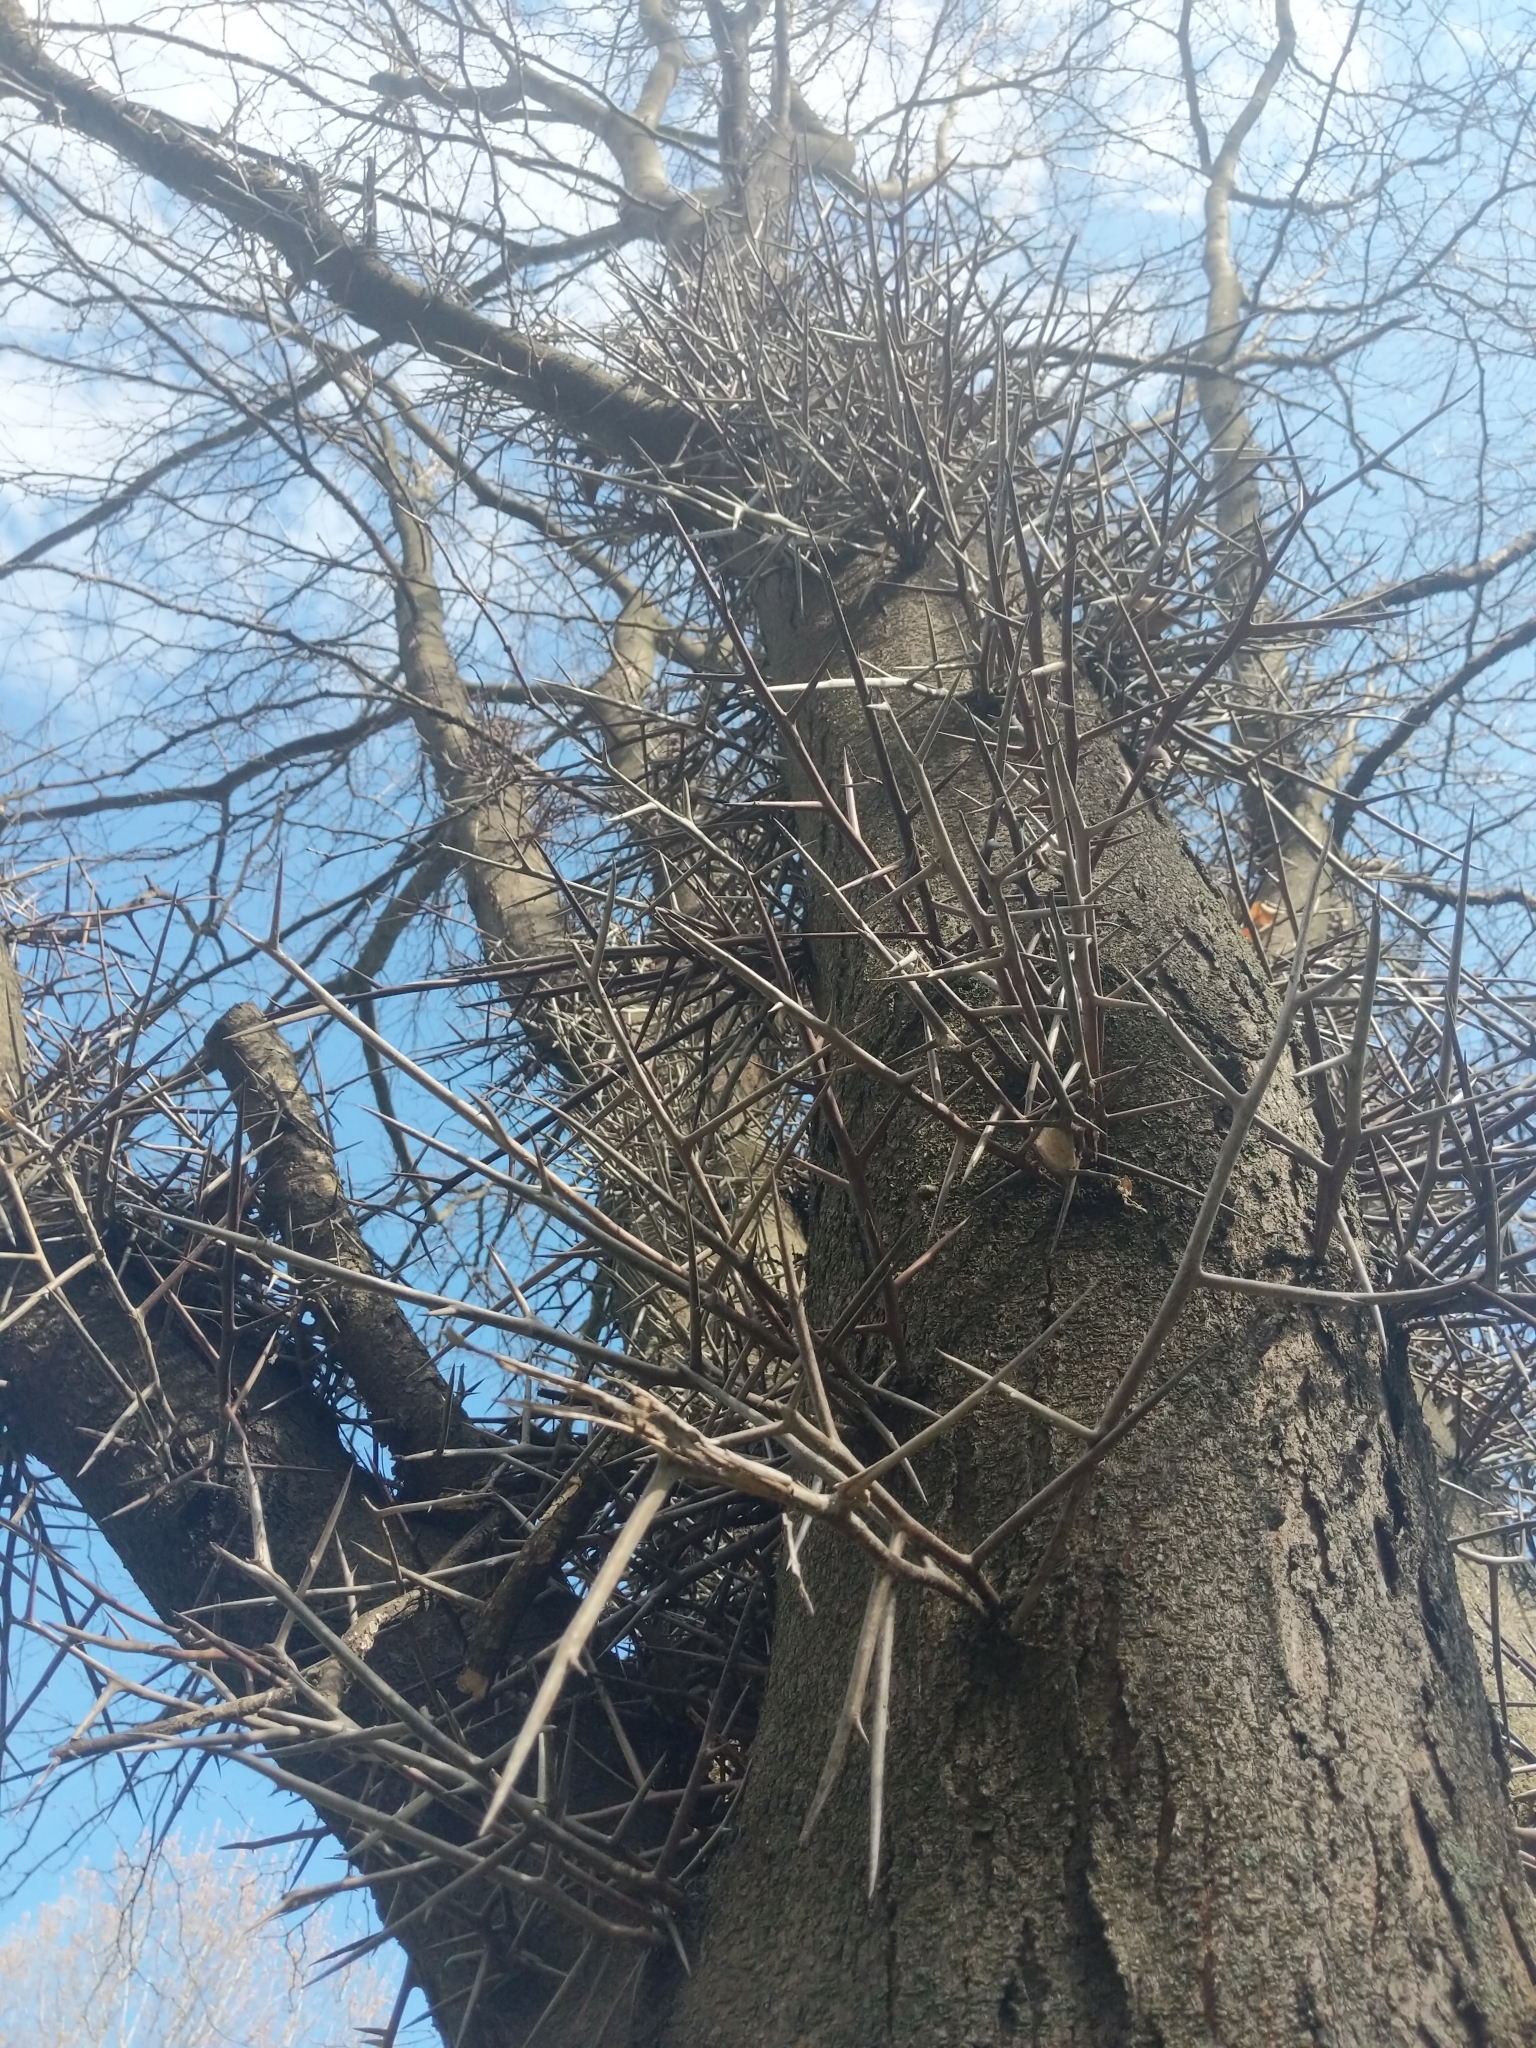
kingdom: Plantae
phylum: Tracheophyta
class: Magnoliopsida
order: Fabales
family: Fabaceae
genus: Gleditsia
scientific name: Gleditsia triacanthos
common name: Common honeylocust
